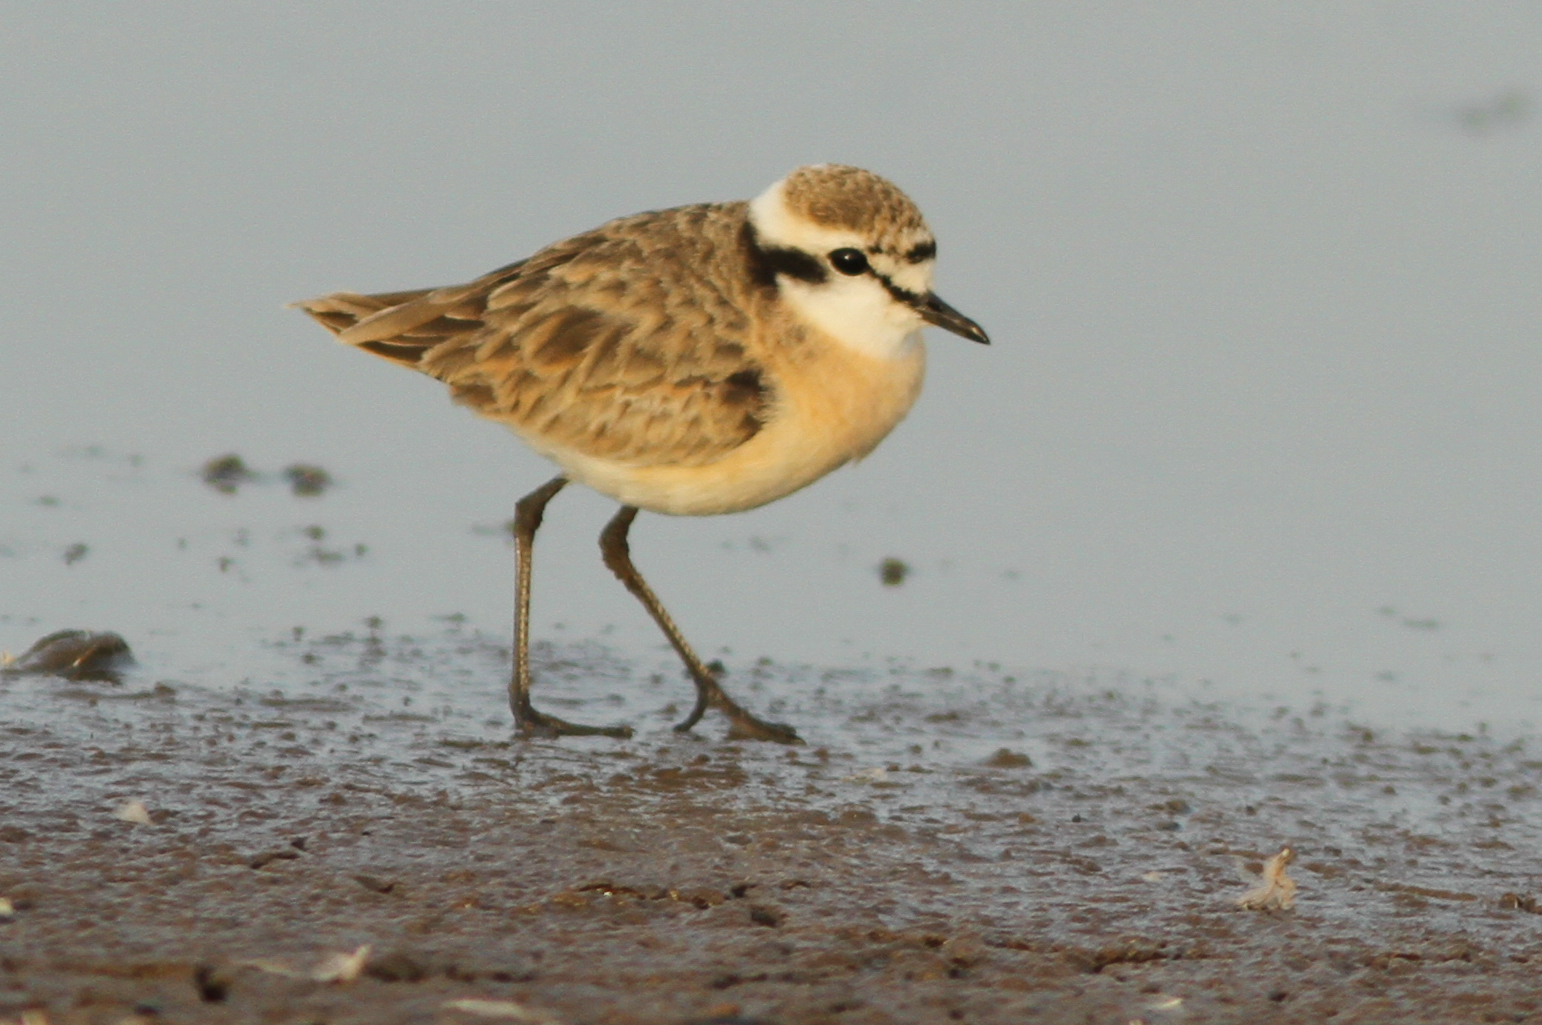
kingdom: Animalia
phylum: Chordata
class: Aves
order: Charadriiformes
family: Charadriidae
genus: Anarhynchus
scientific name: Anarhynchus
